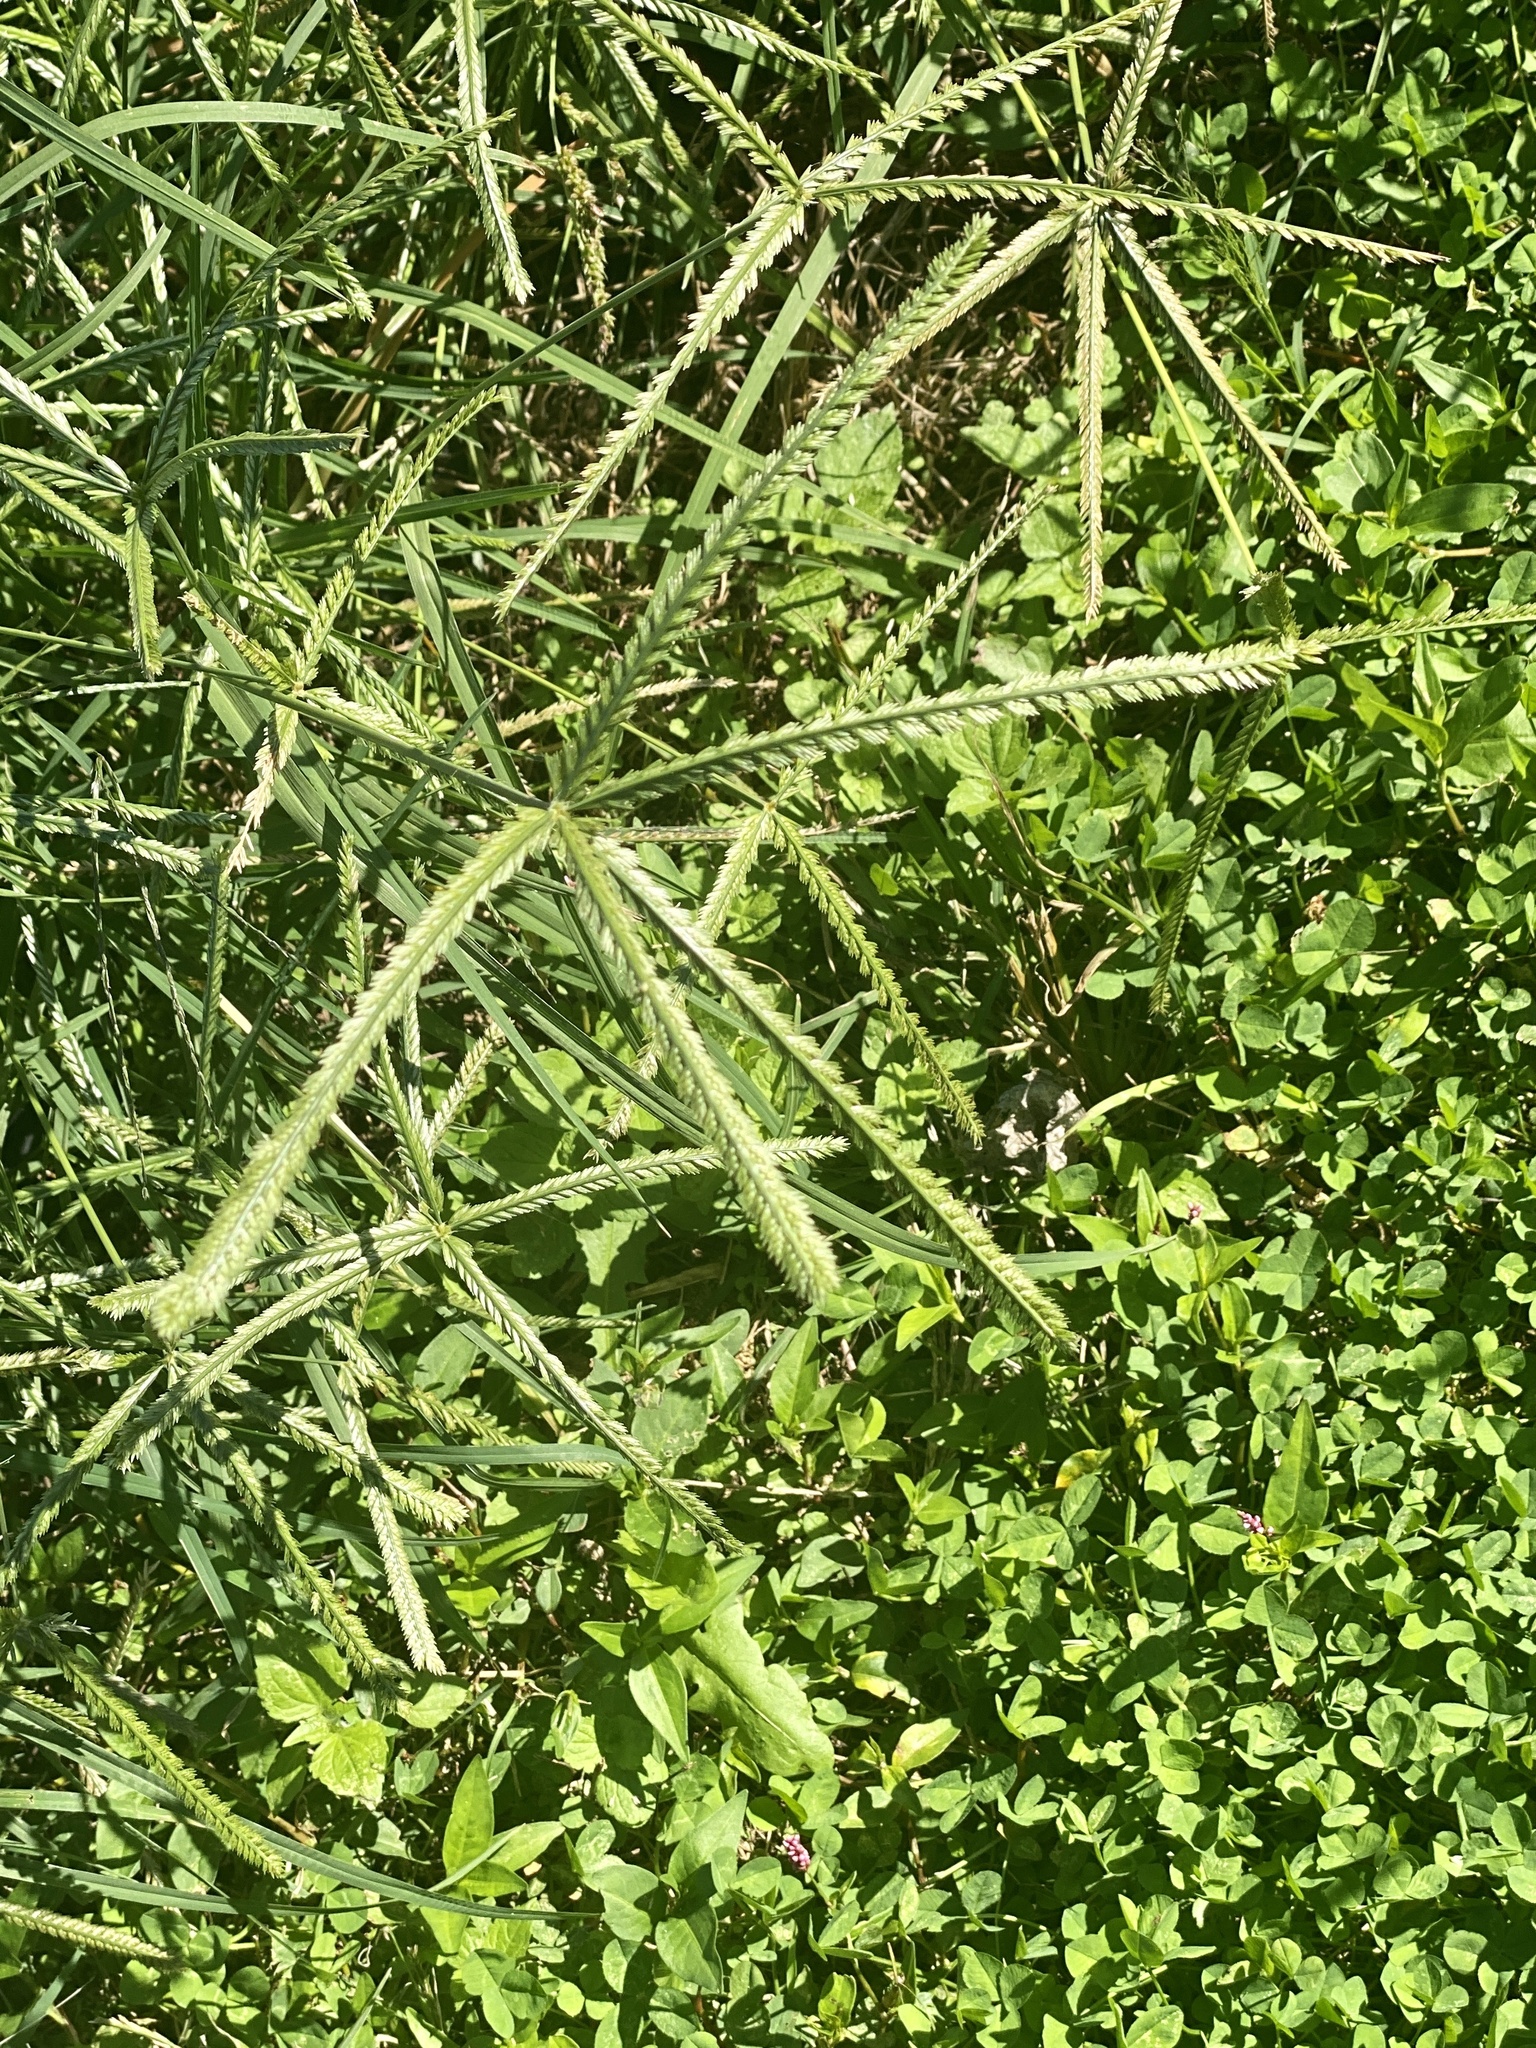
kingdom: Plantae
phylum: Tracheophyta
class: Liliopsida
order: Poales
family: Poaceae
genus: Eleusine
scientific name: Eleusine indica
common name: Yard-grass
